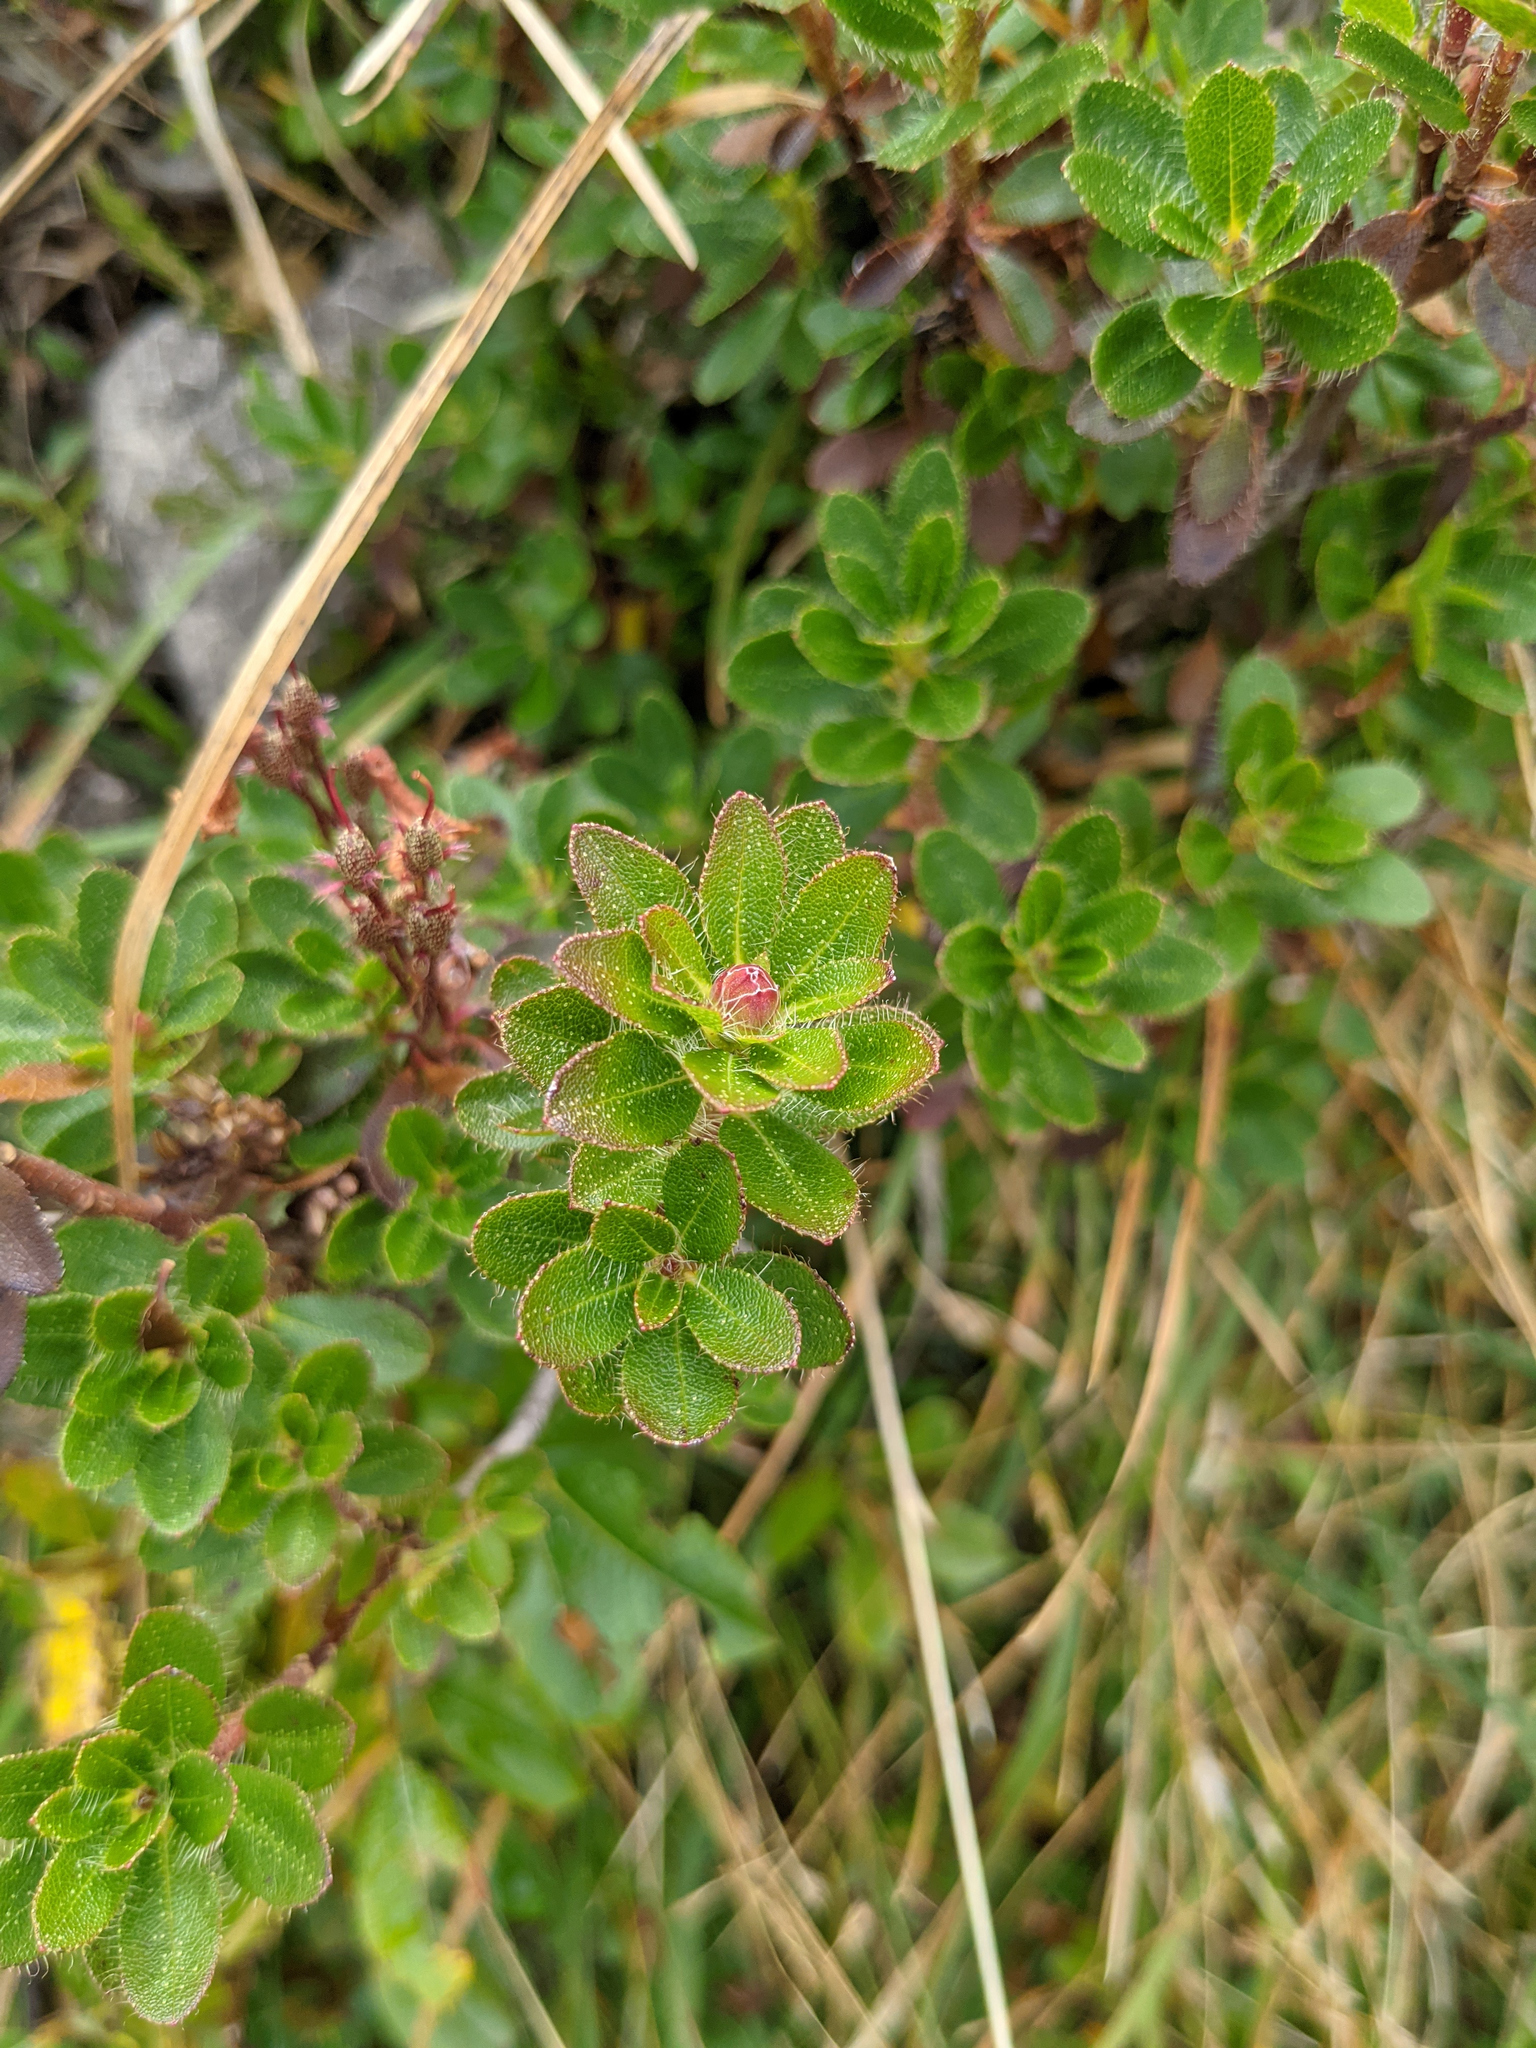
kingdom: Plantae
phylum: Tracheophyta
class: Magnoliopsida
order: Ericales
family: Ericaceae
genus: Rhododendron
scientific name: Rhododendron hirsutum
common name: Hairy alpenrose
